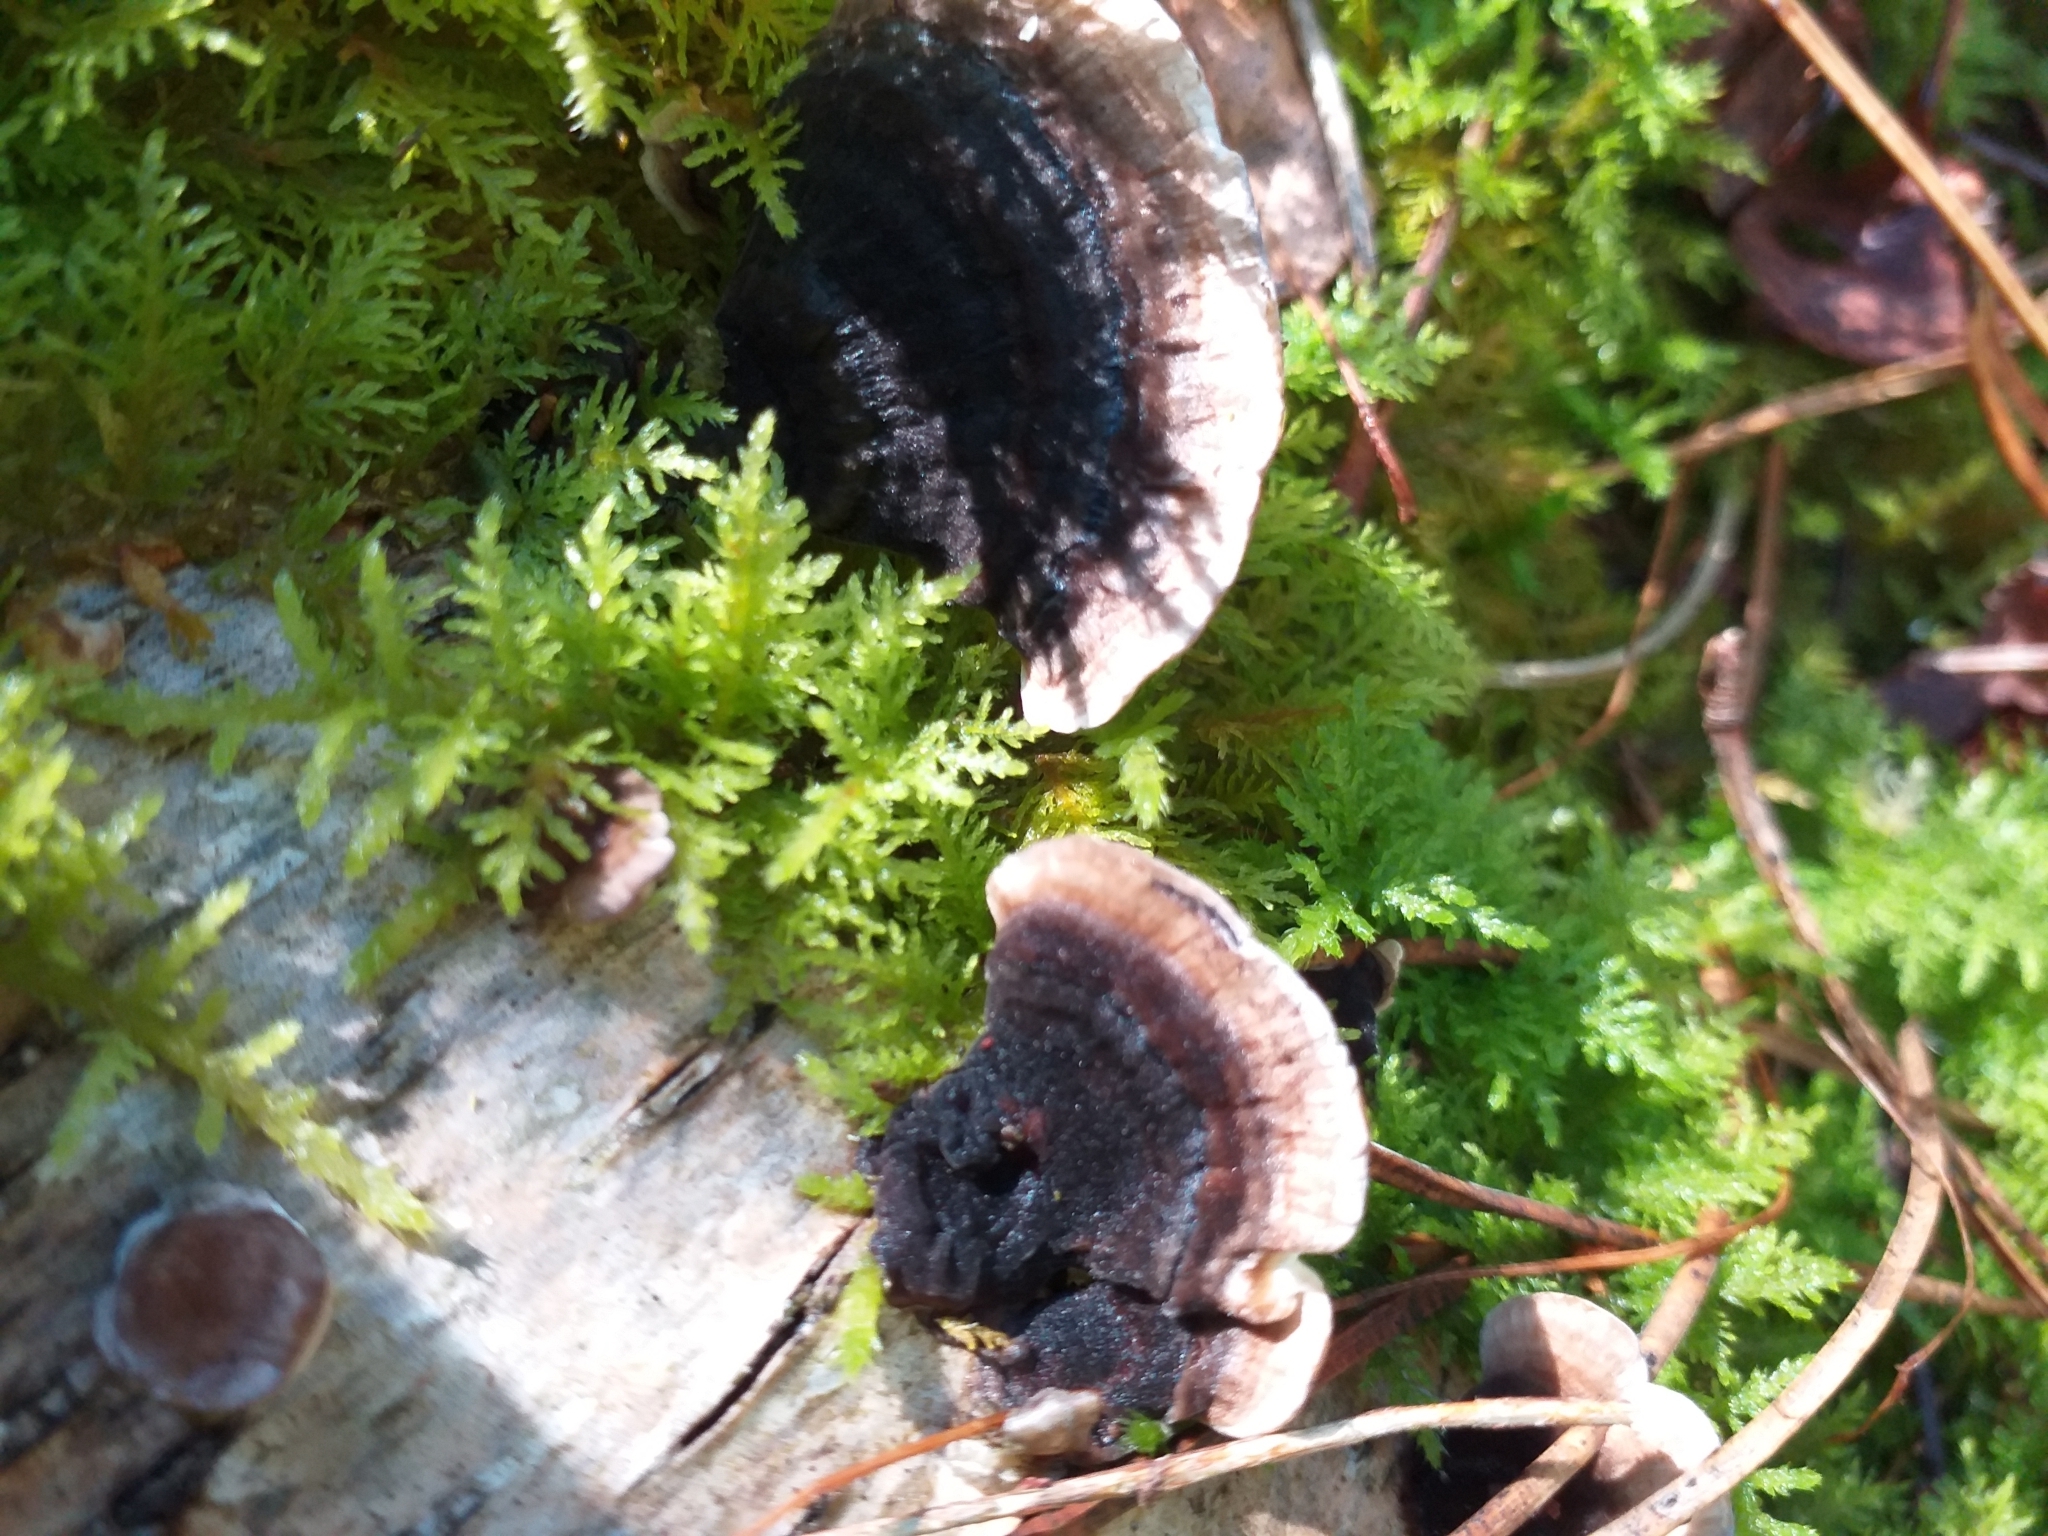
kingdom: Fungi
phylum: Basidiomycota
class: Agaricomycetes
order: Polyporales
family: Polyporaceae
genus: Trametes
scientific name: Trametes versicolor
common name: Turkeytail
